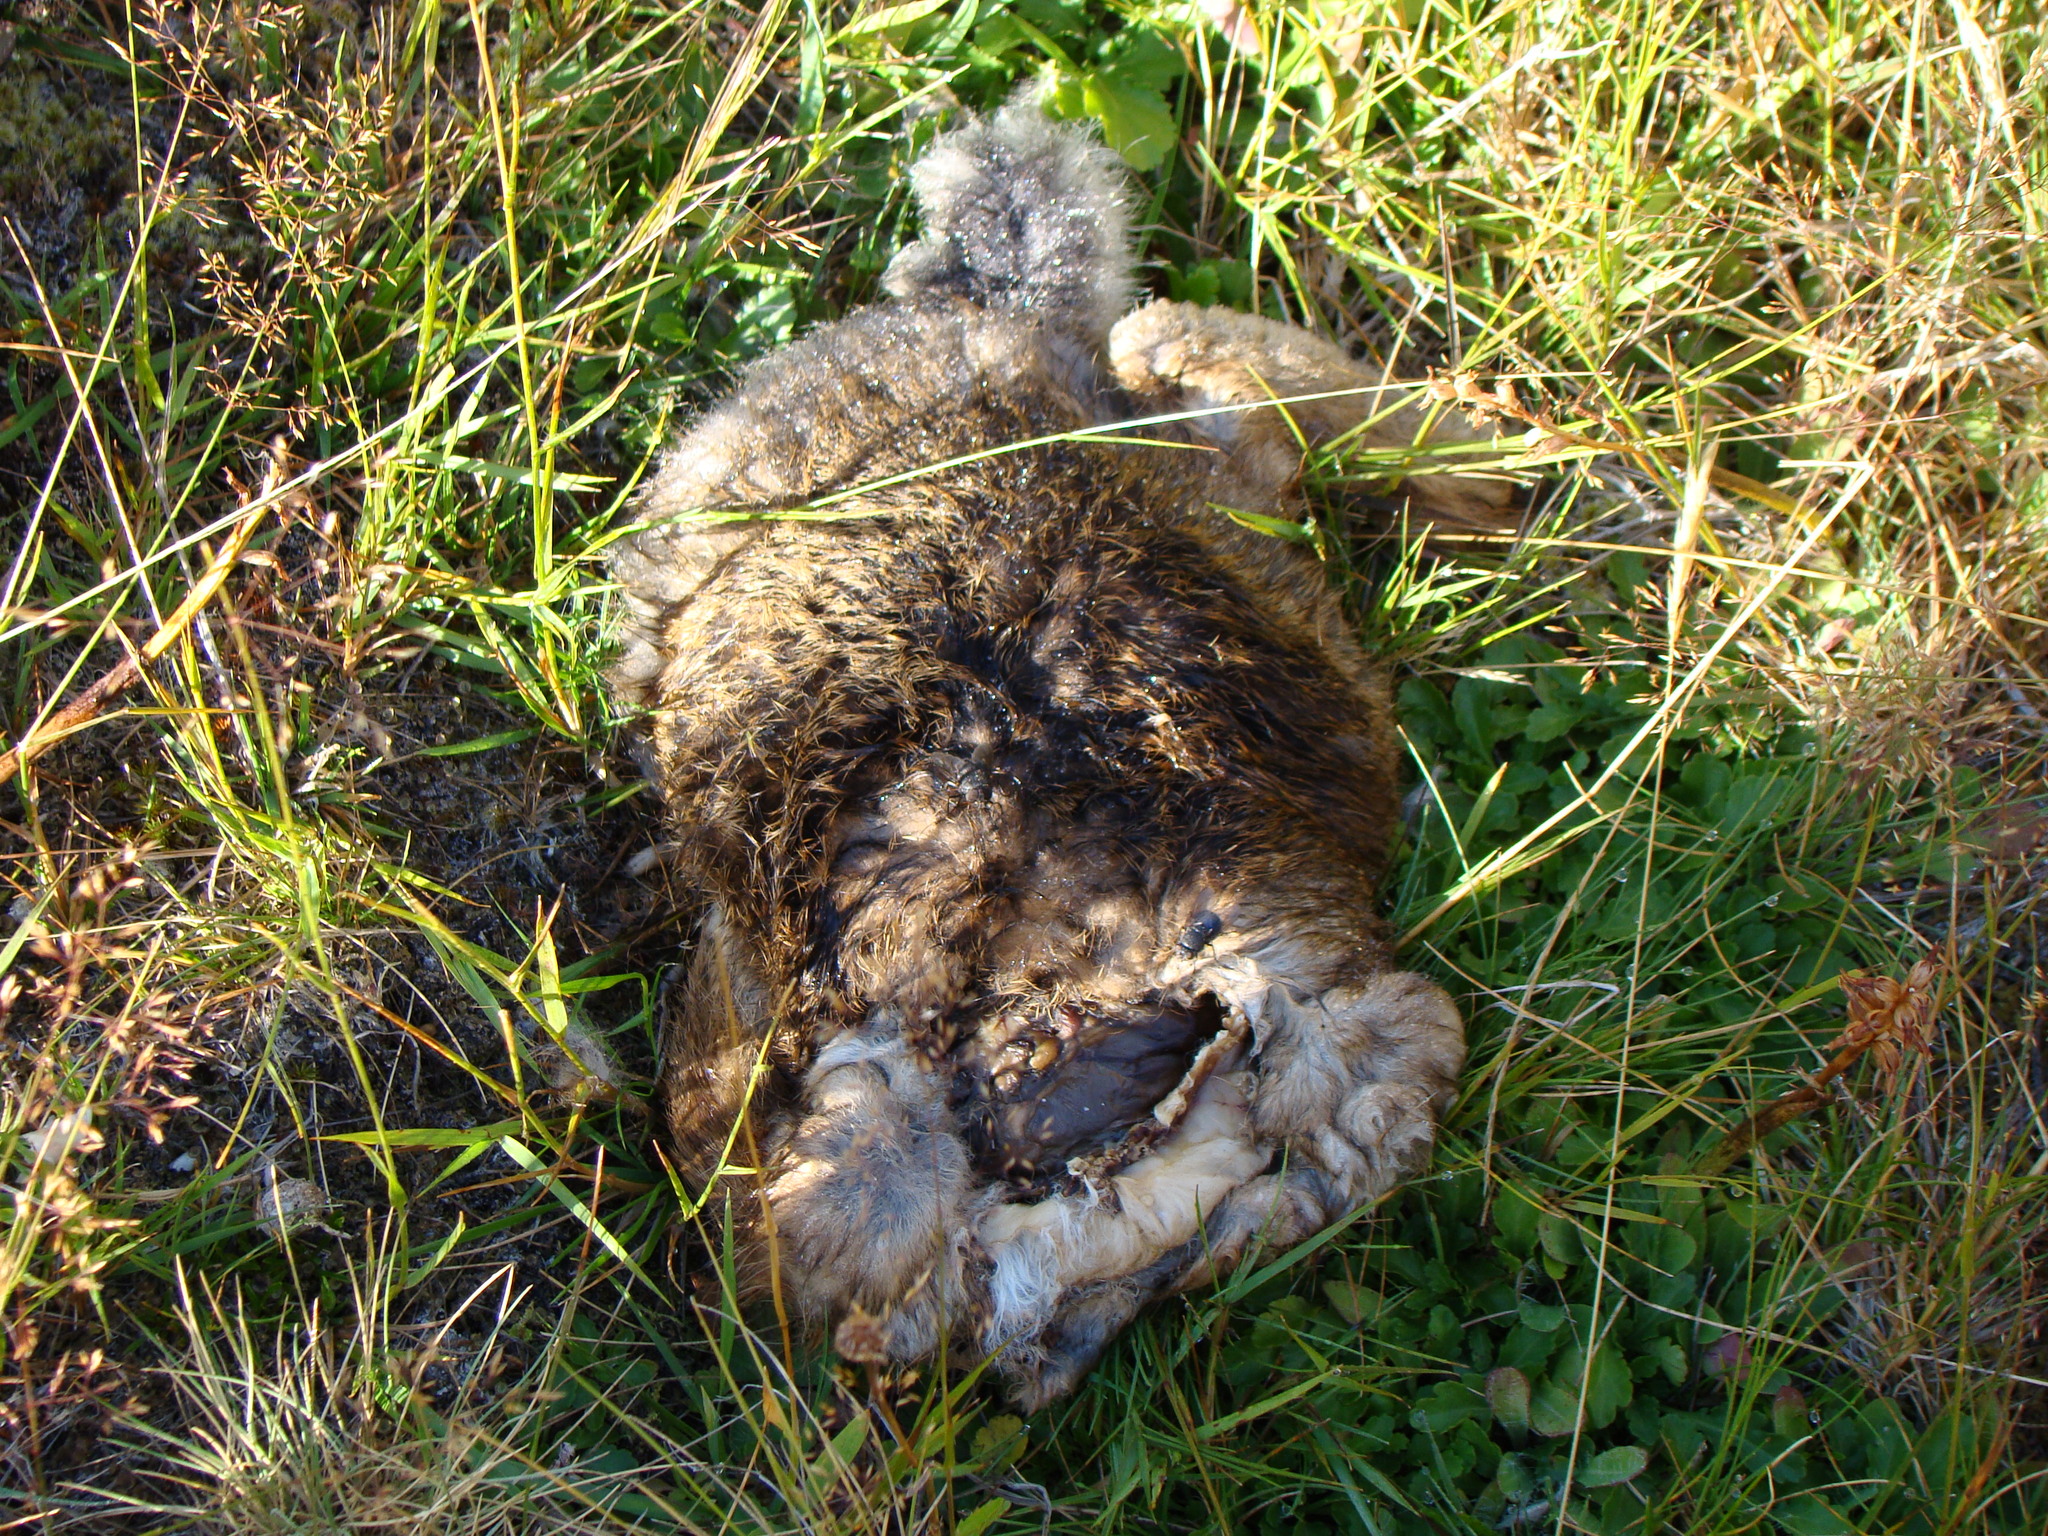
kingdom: Animalia
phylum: Chordata
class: Mammalia
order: Lagomorpha
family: Leporidae
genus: Oryctolagus
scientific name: Oryctolagus cuniculus
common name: European rabbit
